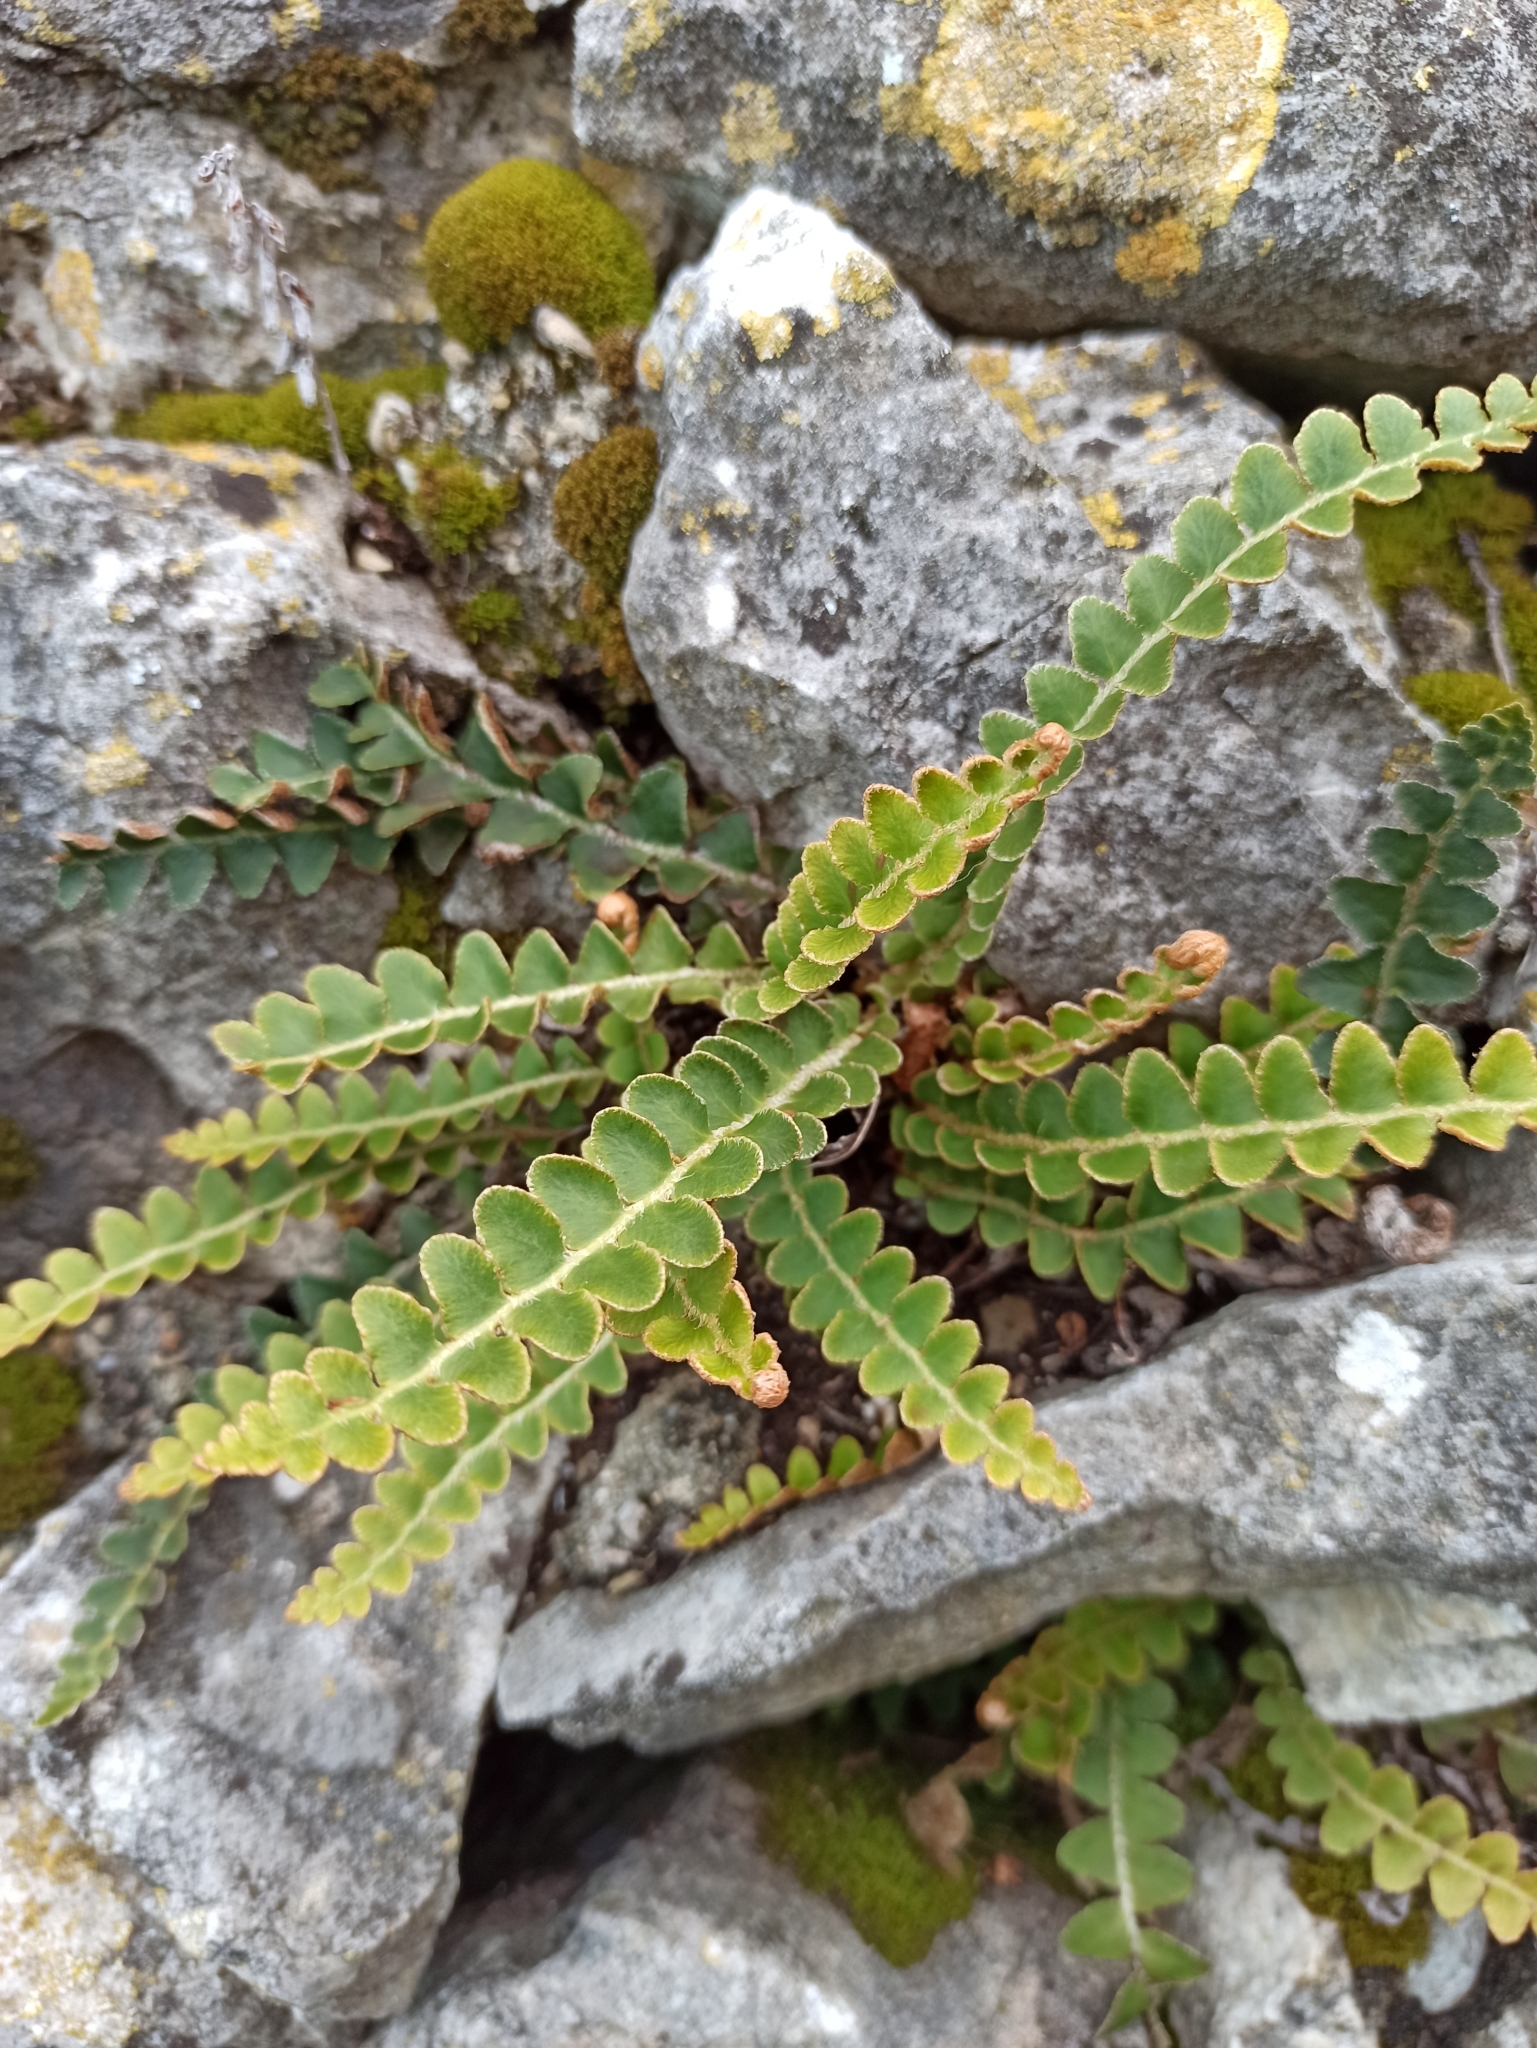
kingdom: Plantae
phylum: Tracheophyta
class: Polypodiopsida
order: Polypodiales
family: Aspleniaceae
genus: Asplenium
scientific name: Asplenium ceterach
